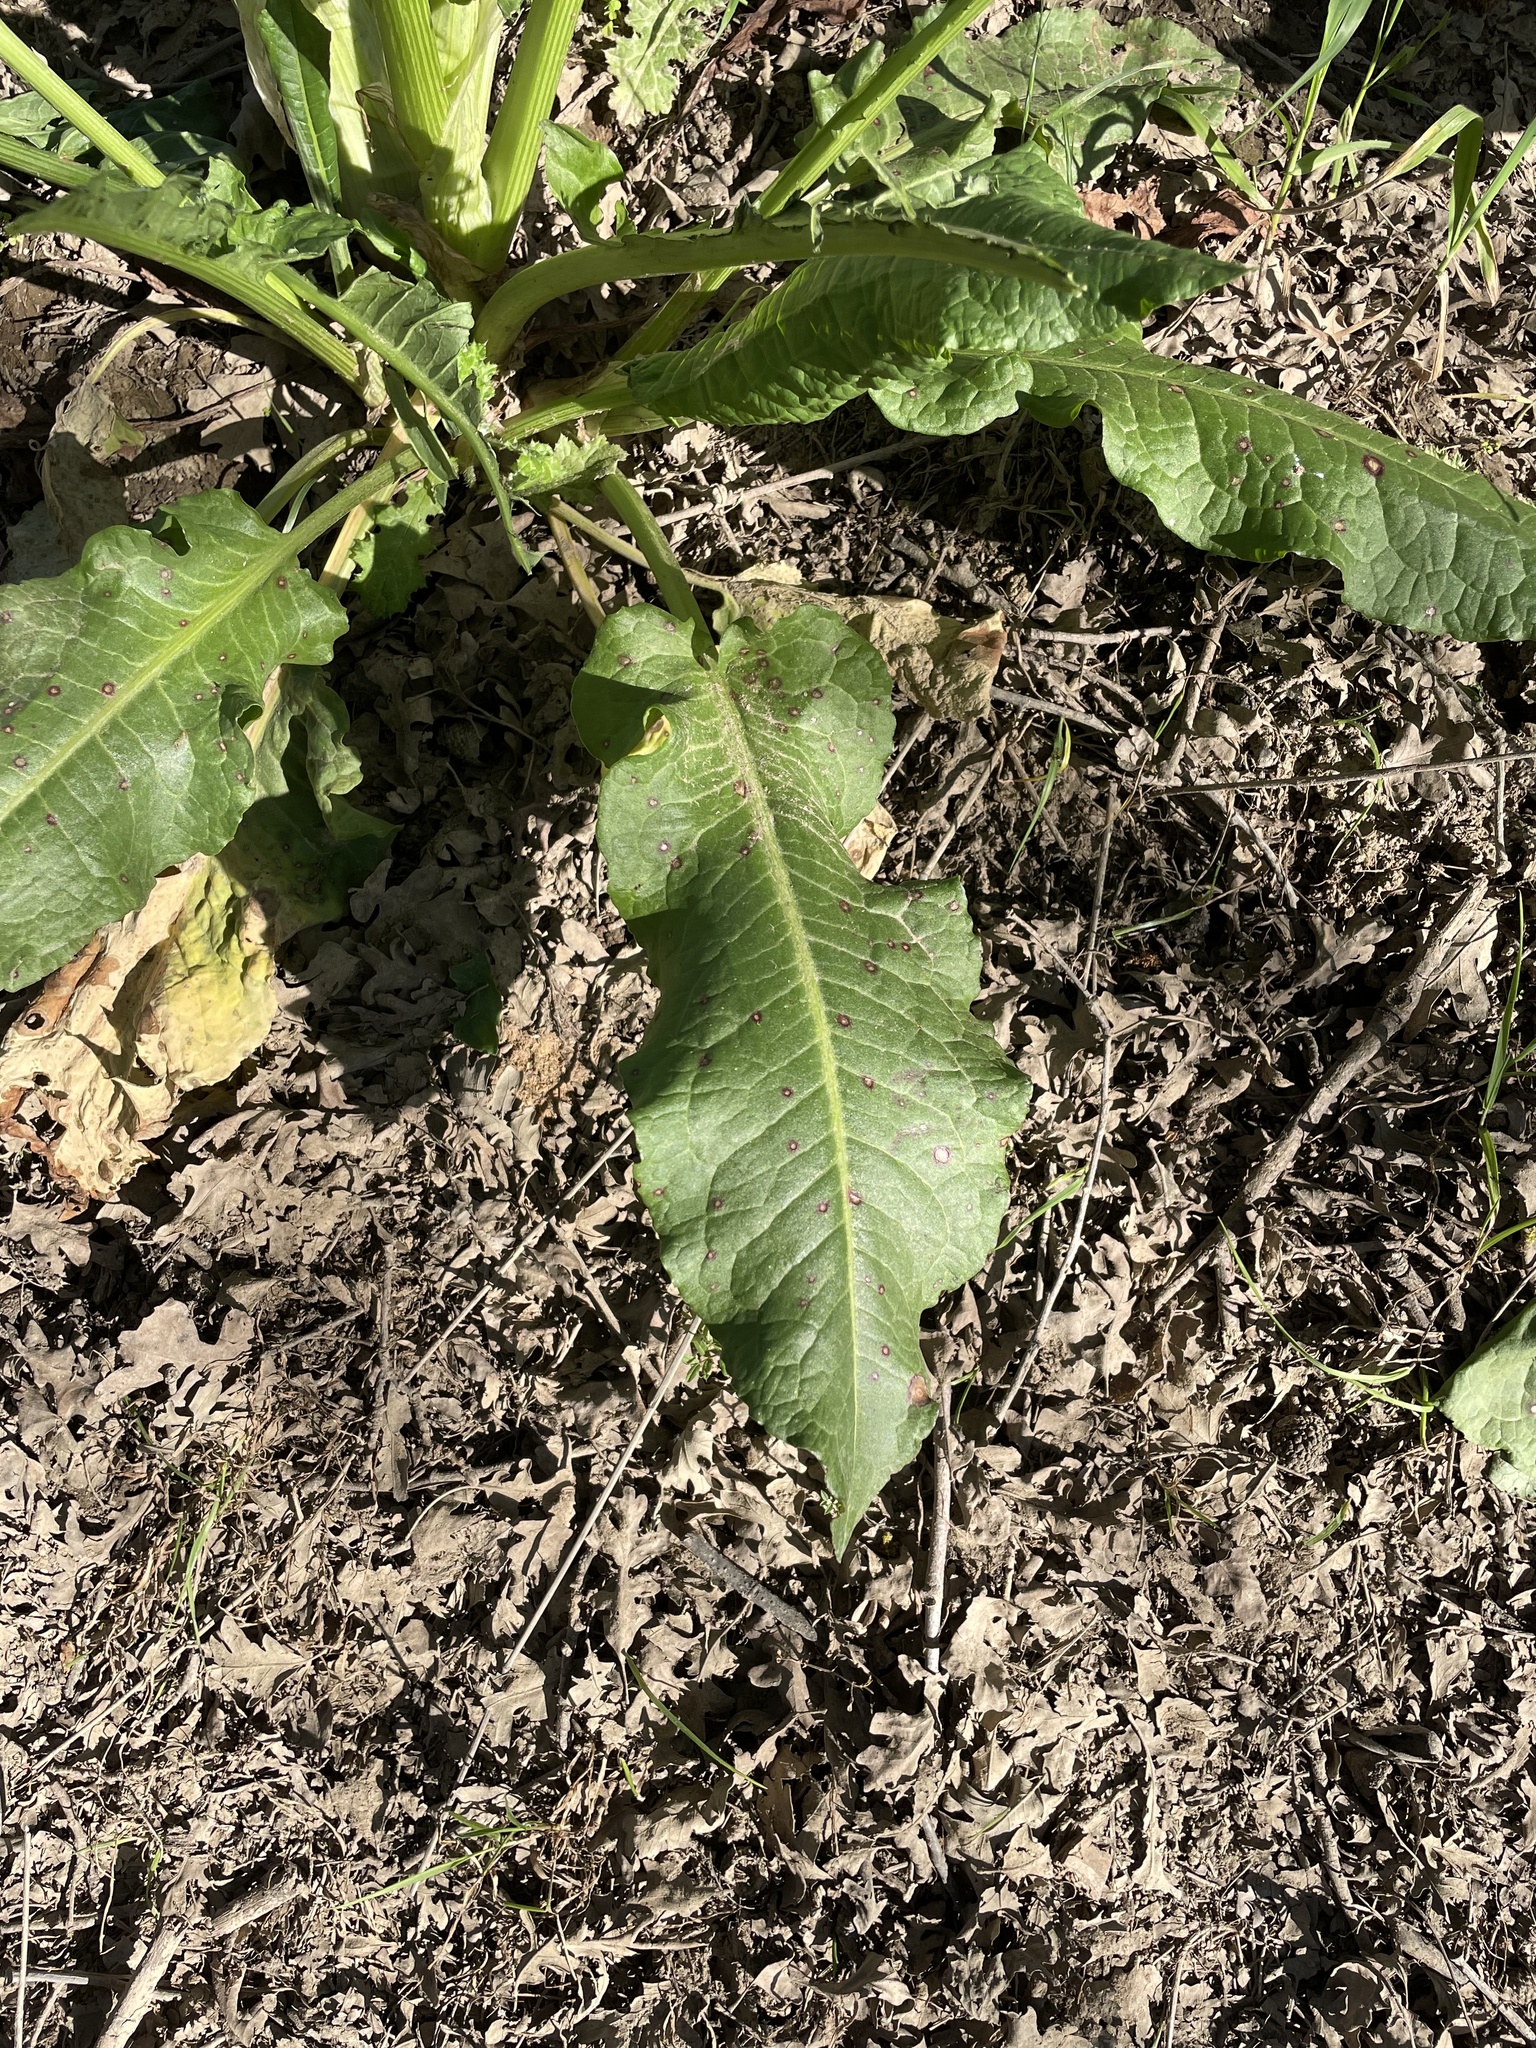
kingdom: Plantae
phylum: Tracheophyta
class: Magnoliopsida
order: Caryophyllales
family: Polygonaceae
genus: Rumex
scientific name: Rumex crispus
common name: Curled dock
